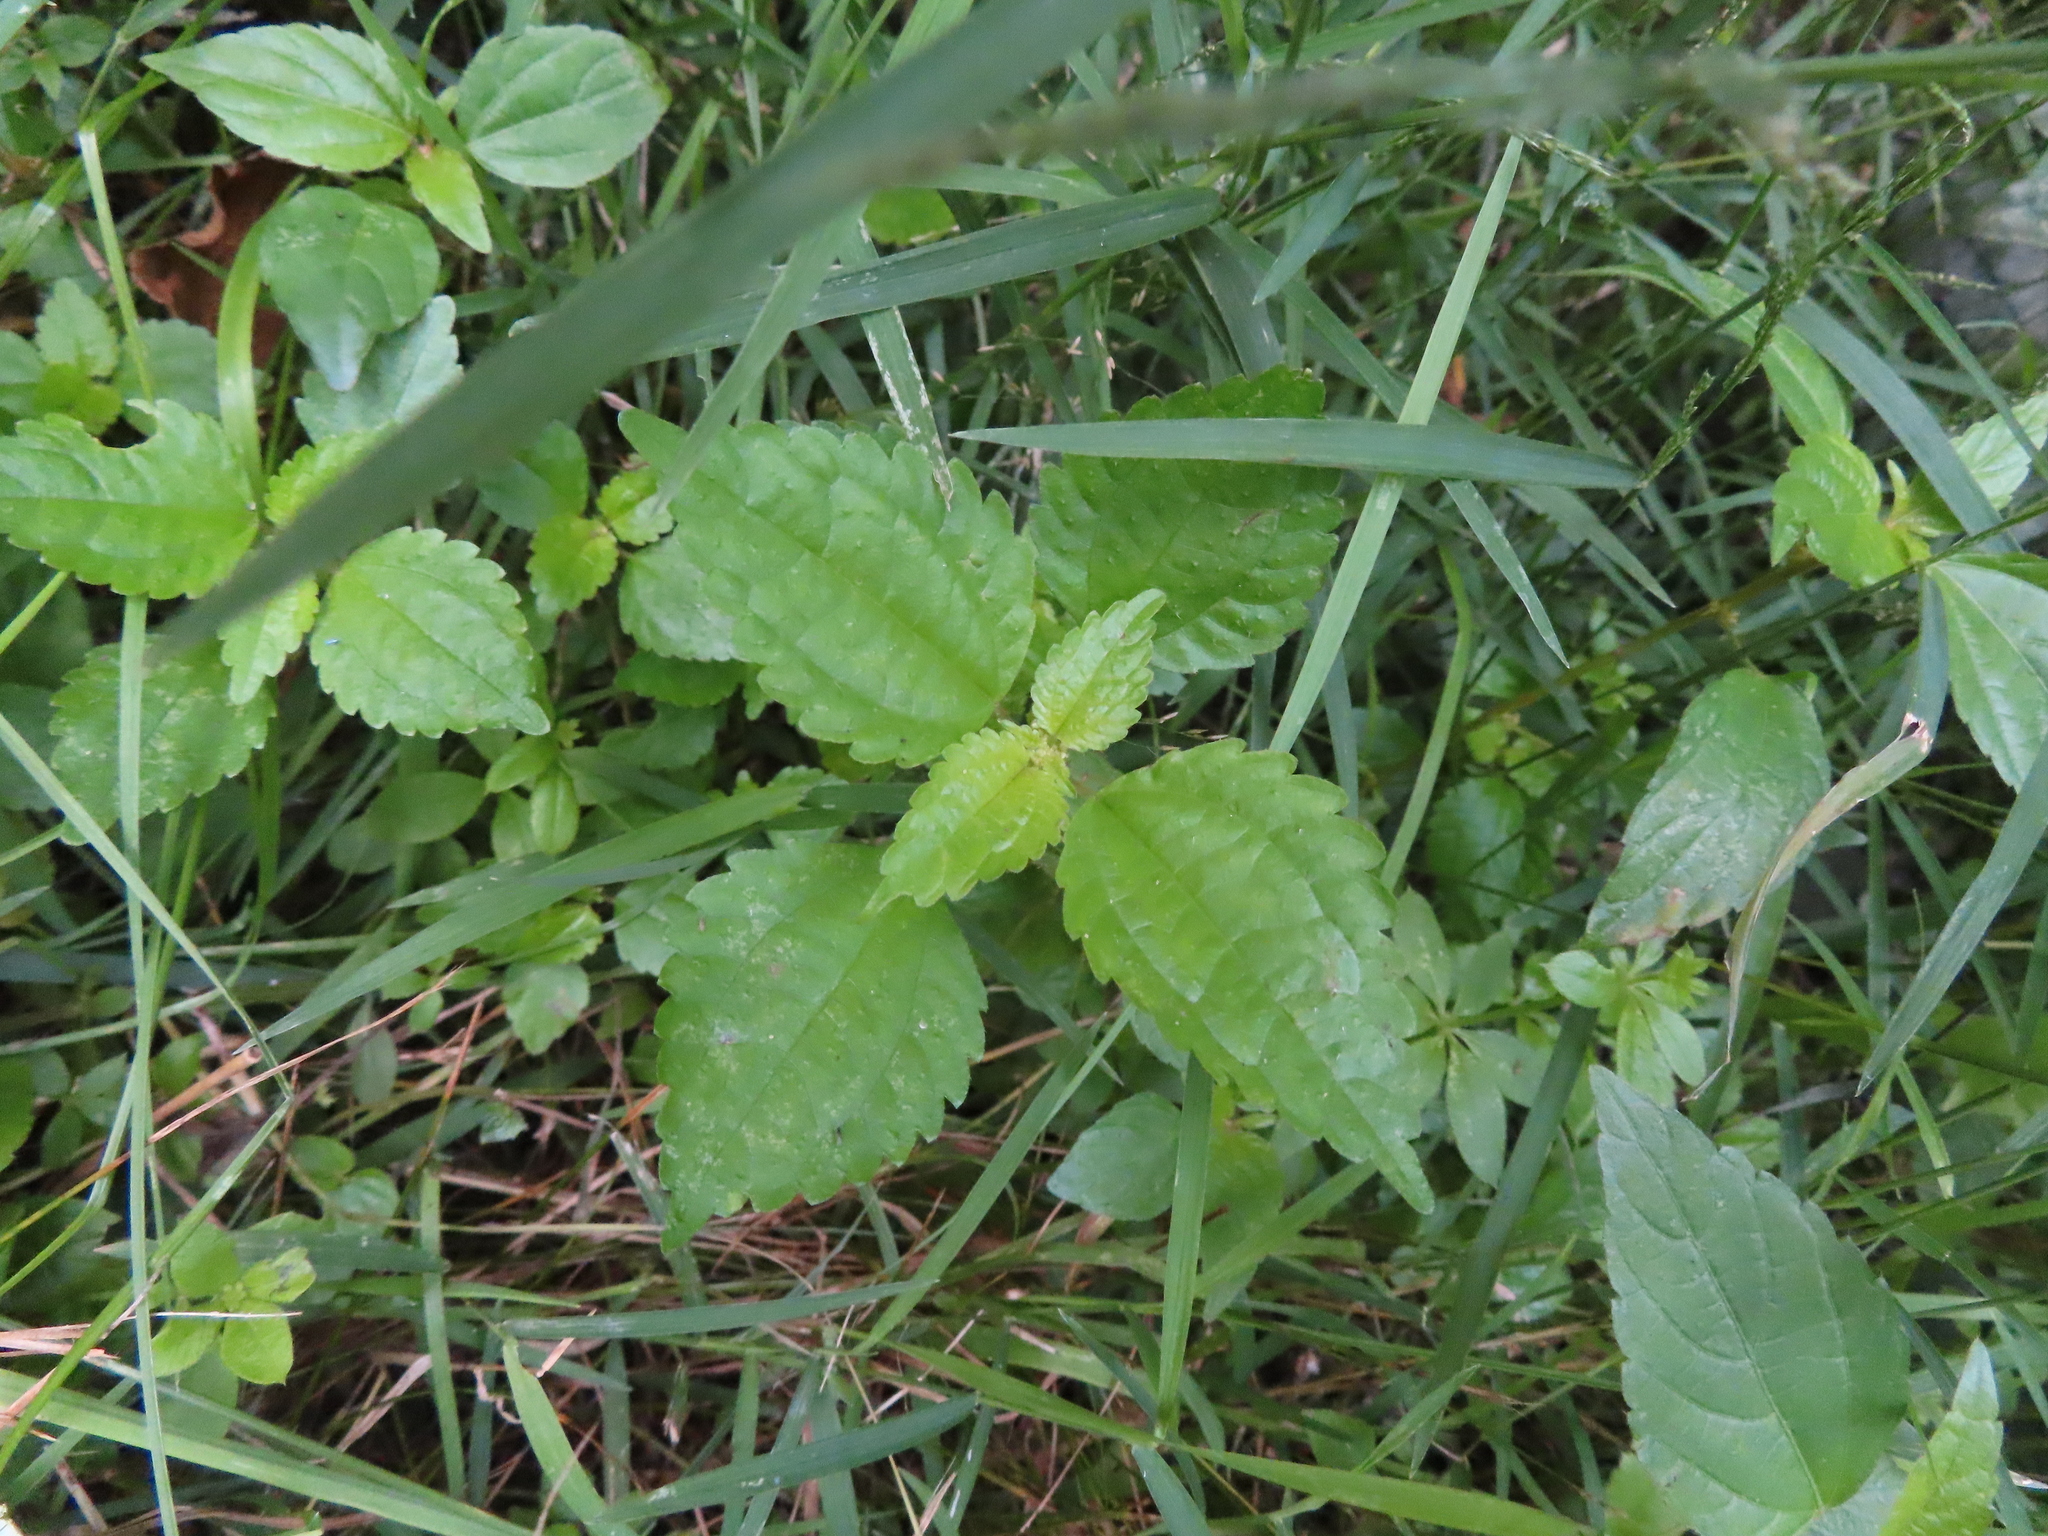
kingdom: Plantae
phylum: Tracheophyta
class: Magnoliopsida
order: Rosales
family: Urticaceae
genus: Pilea
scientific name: Pilea
